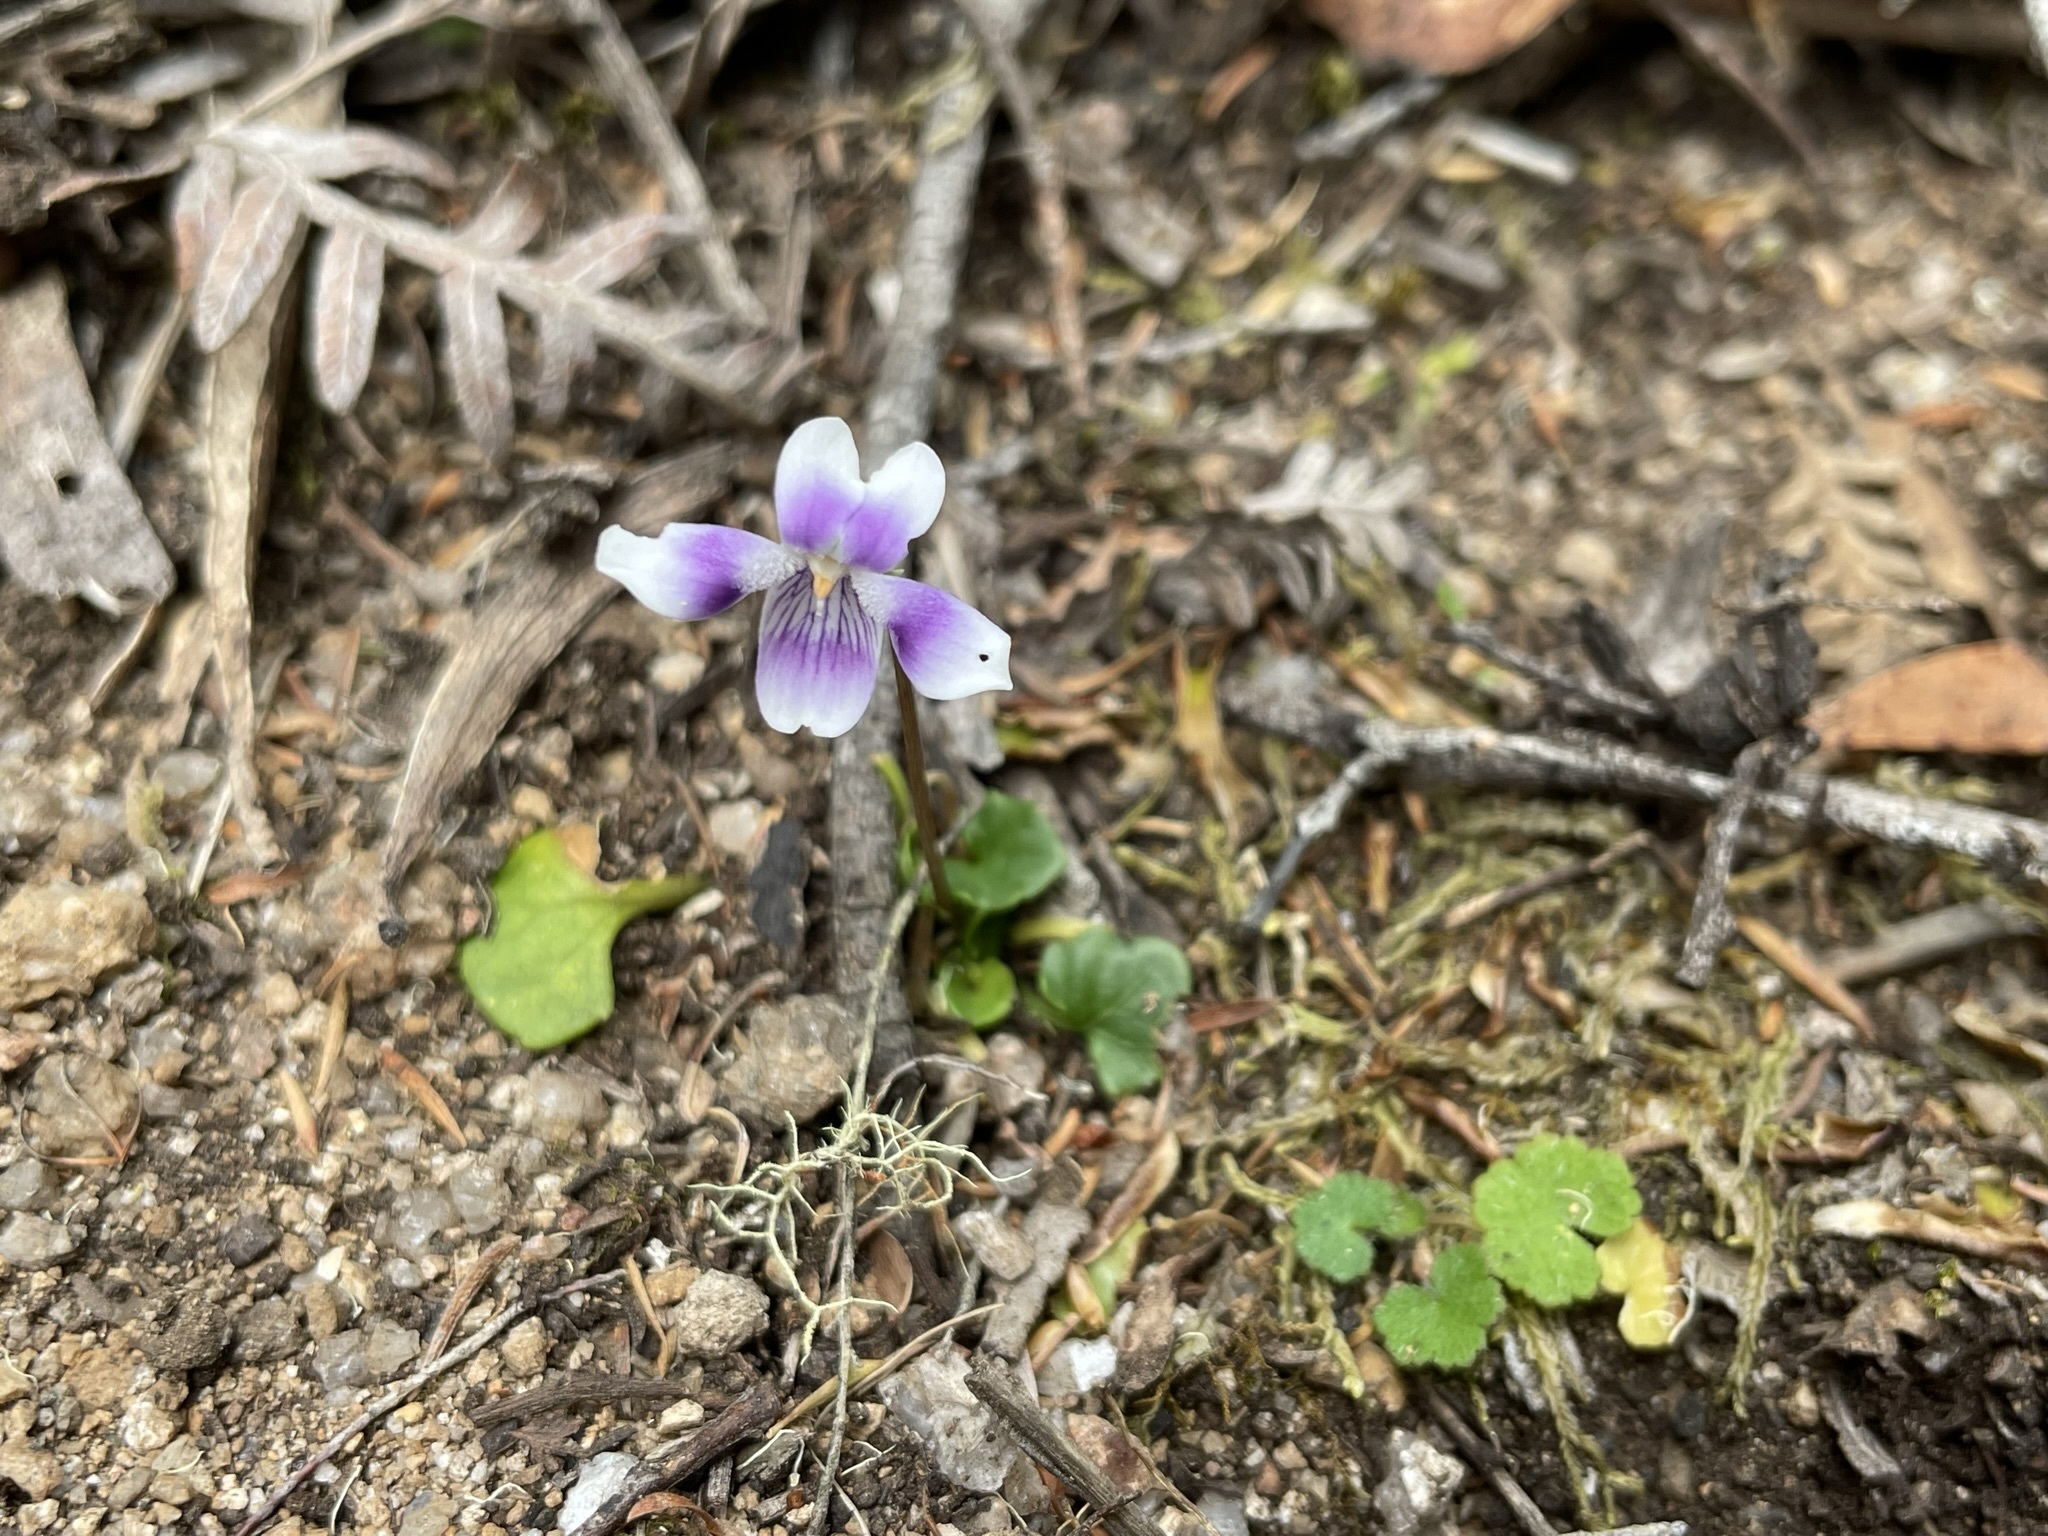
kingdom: Plantae
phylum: Tracheophyta
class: Magnoliopsida
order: Malpighiales
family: Violaceae
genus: Viola
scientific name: Viola hederacea
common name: Australian violet
